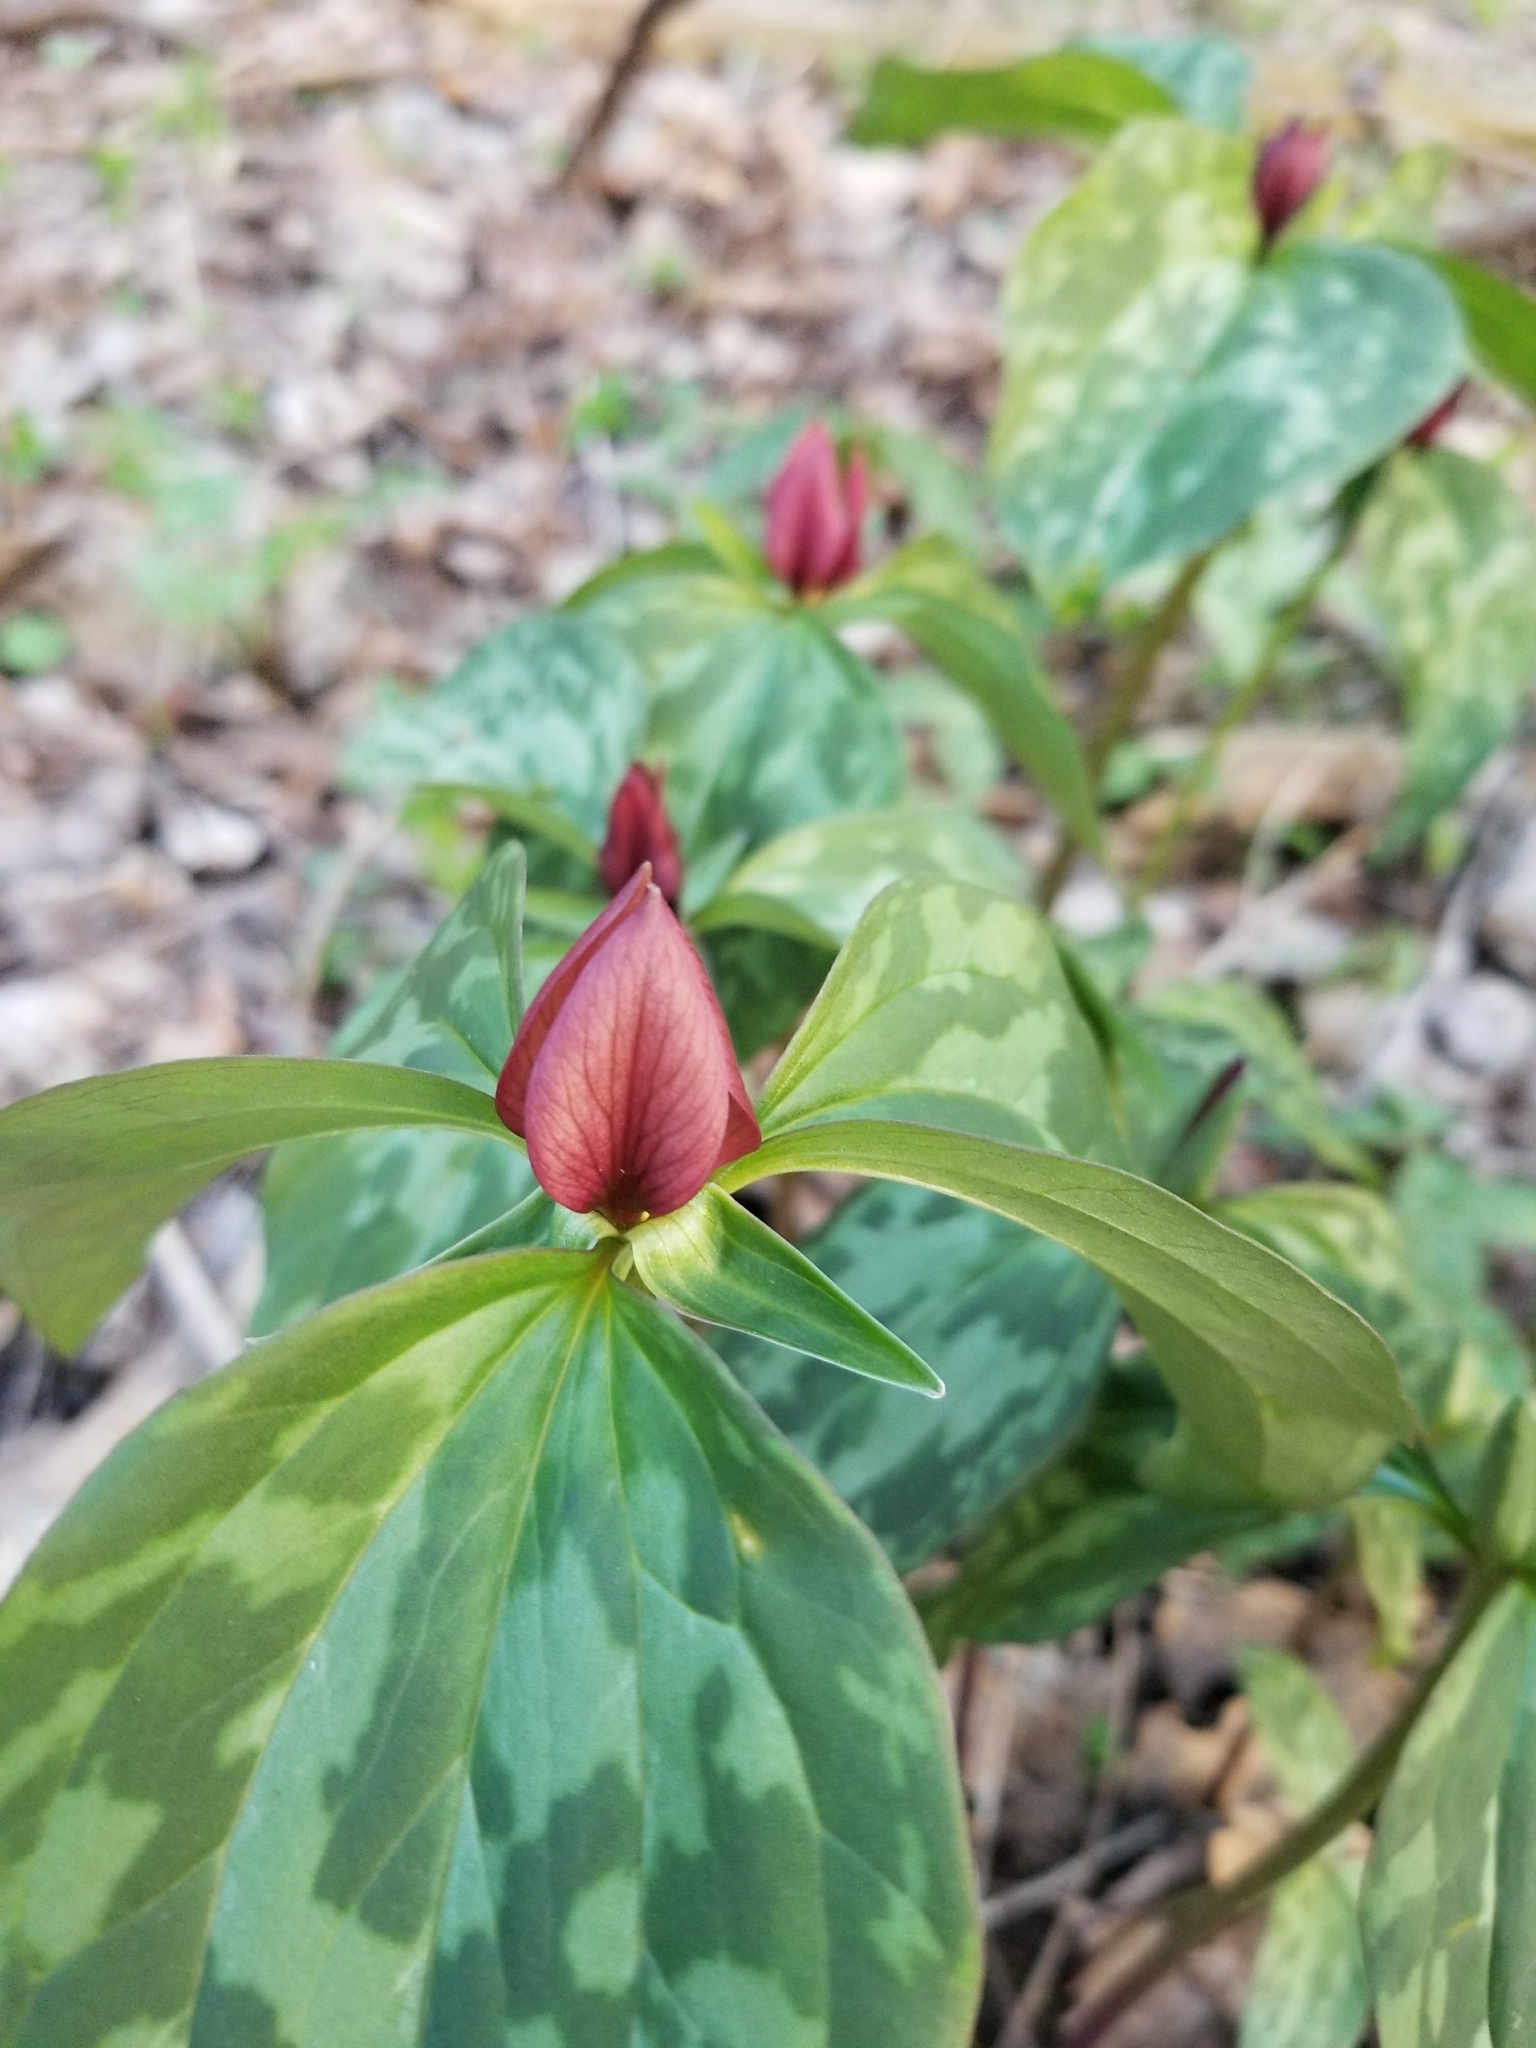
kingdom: Plantae
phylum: Tracheophyta
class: Liliopsida
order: Liliales
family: Melanthiaceae
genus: Trillium
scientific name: Trillium recurvatum
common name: Bloody butcher
